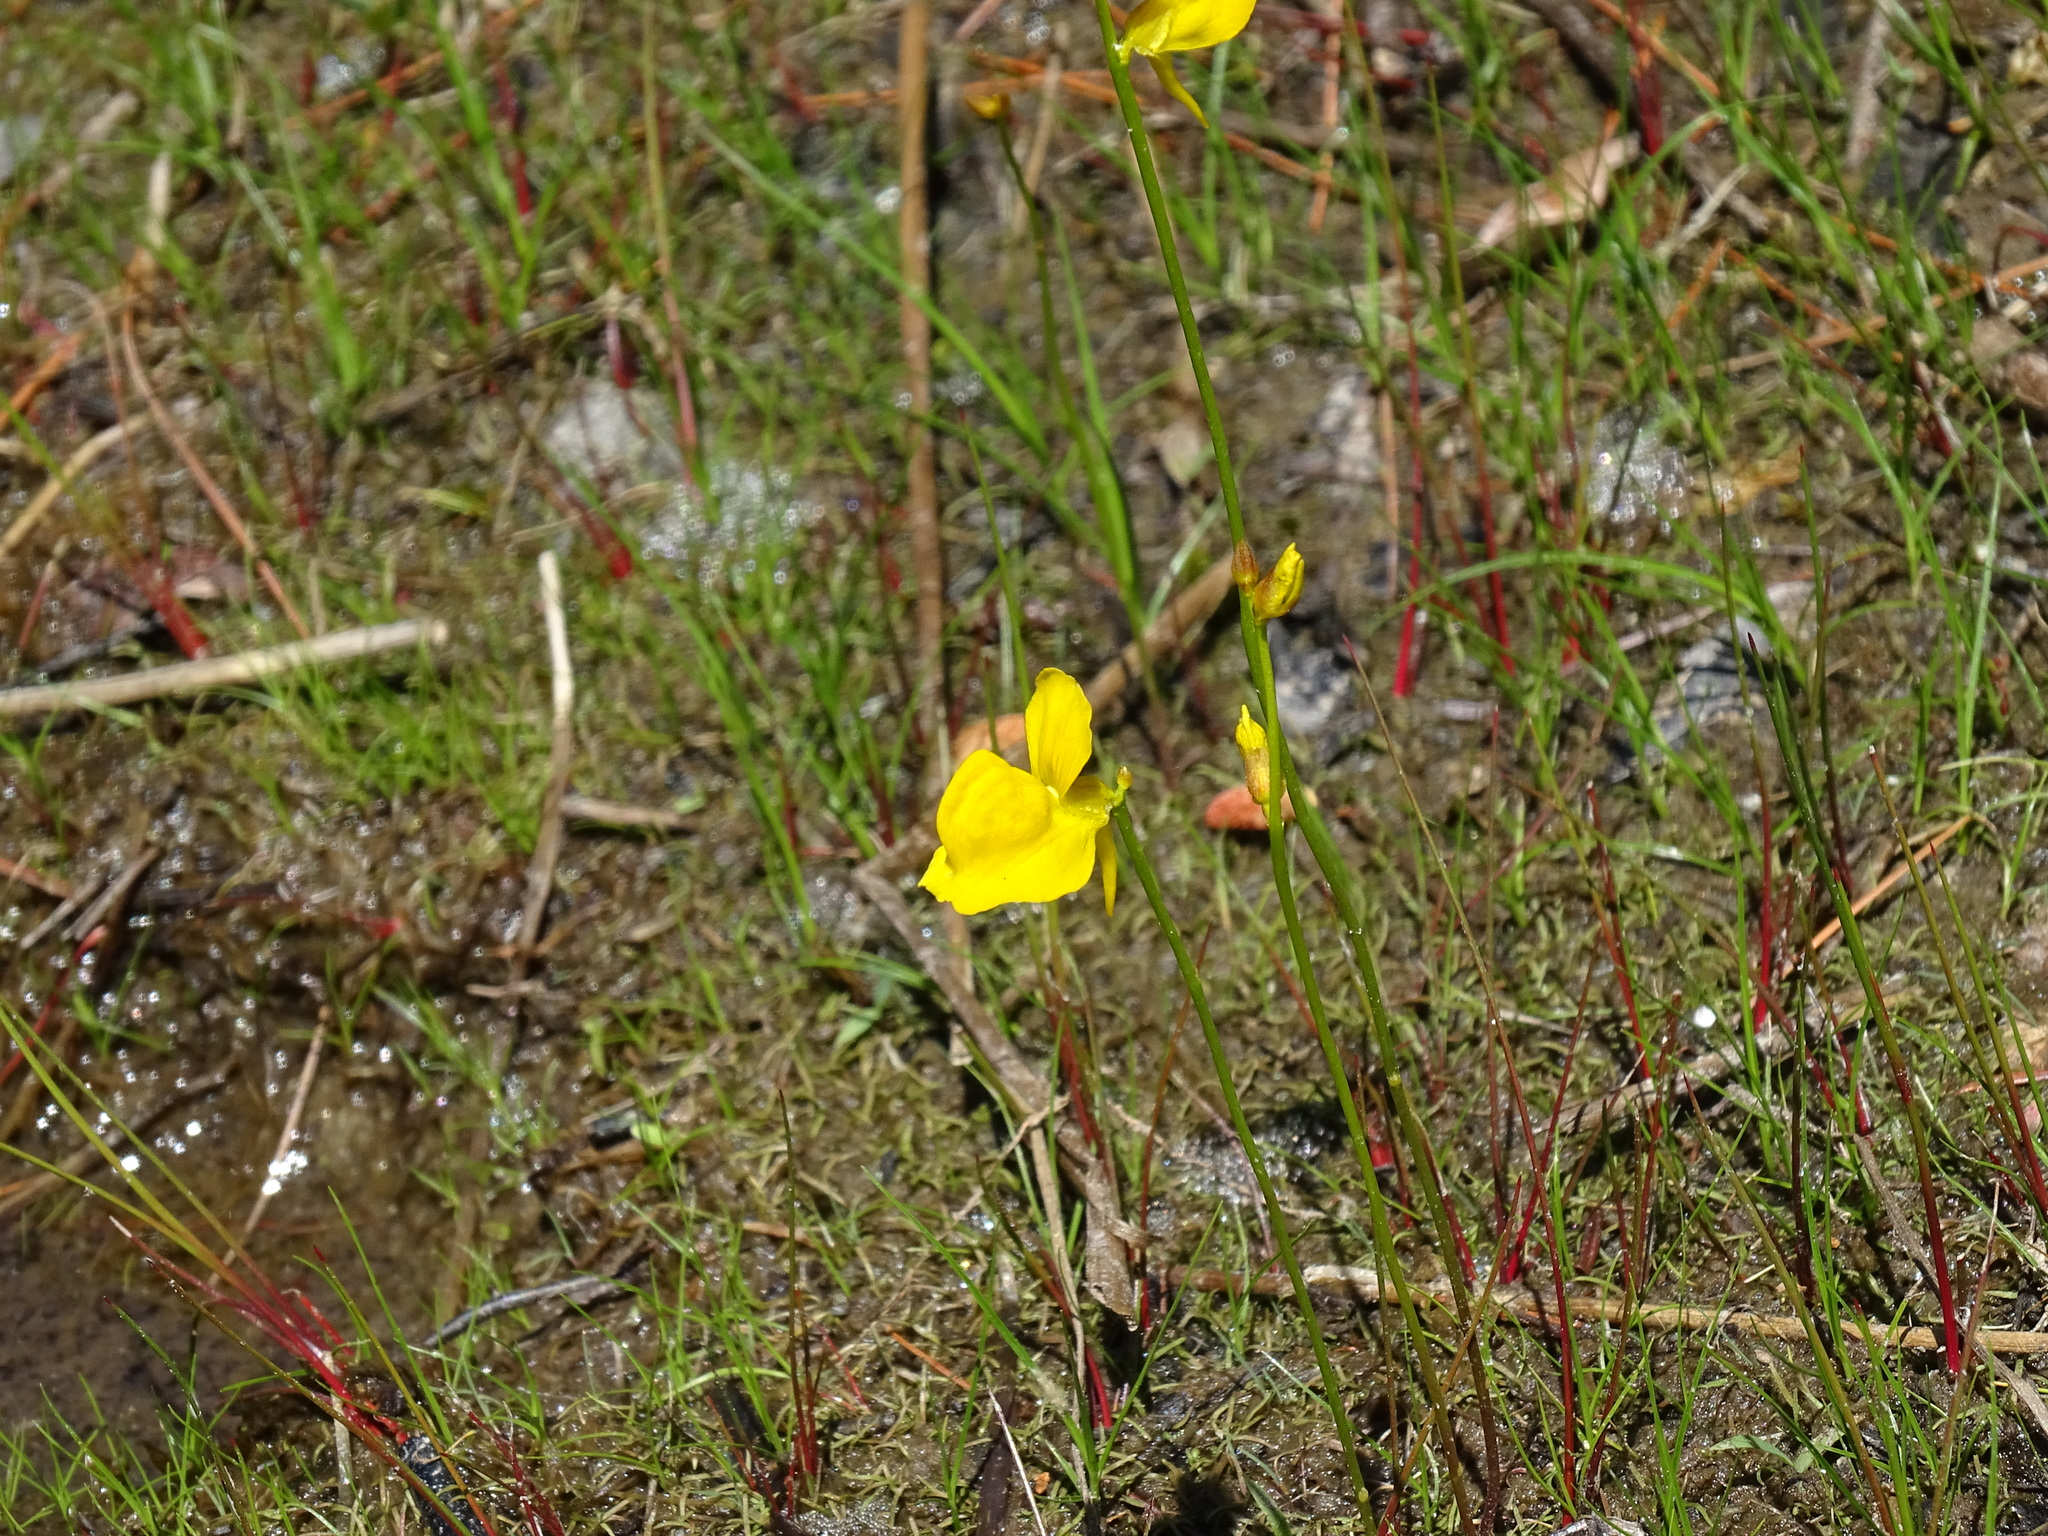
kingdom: Plantae
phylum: Tracheophyta
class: Magnoliopsida
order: Lamiales
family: Lentibulariaceae
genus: Utricularia
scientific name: Utricularia cornuta
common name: Horned bladderwort
